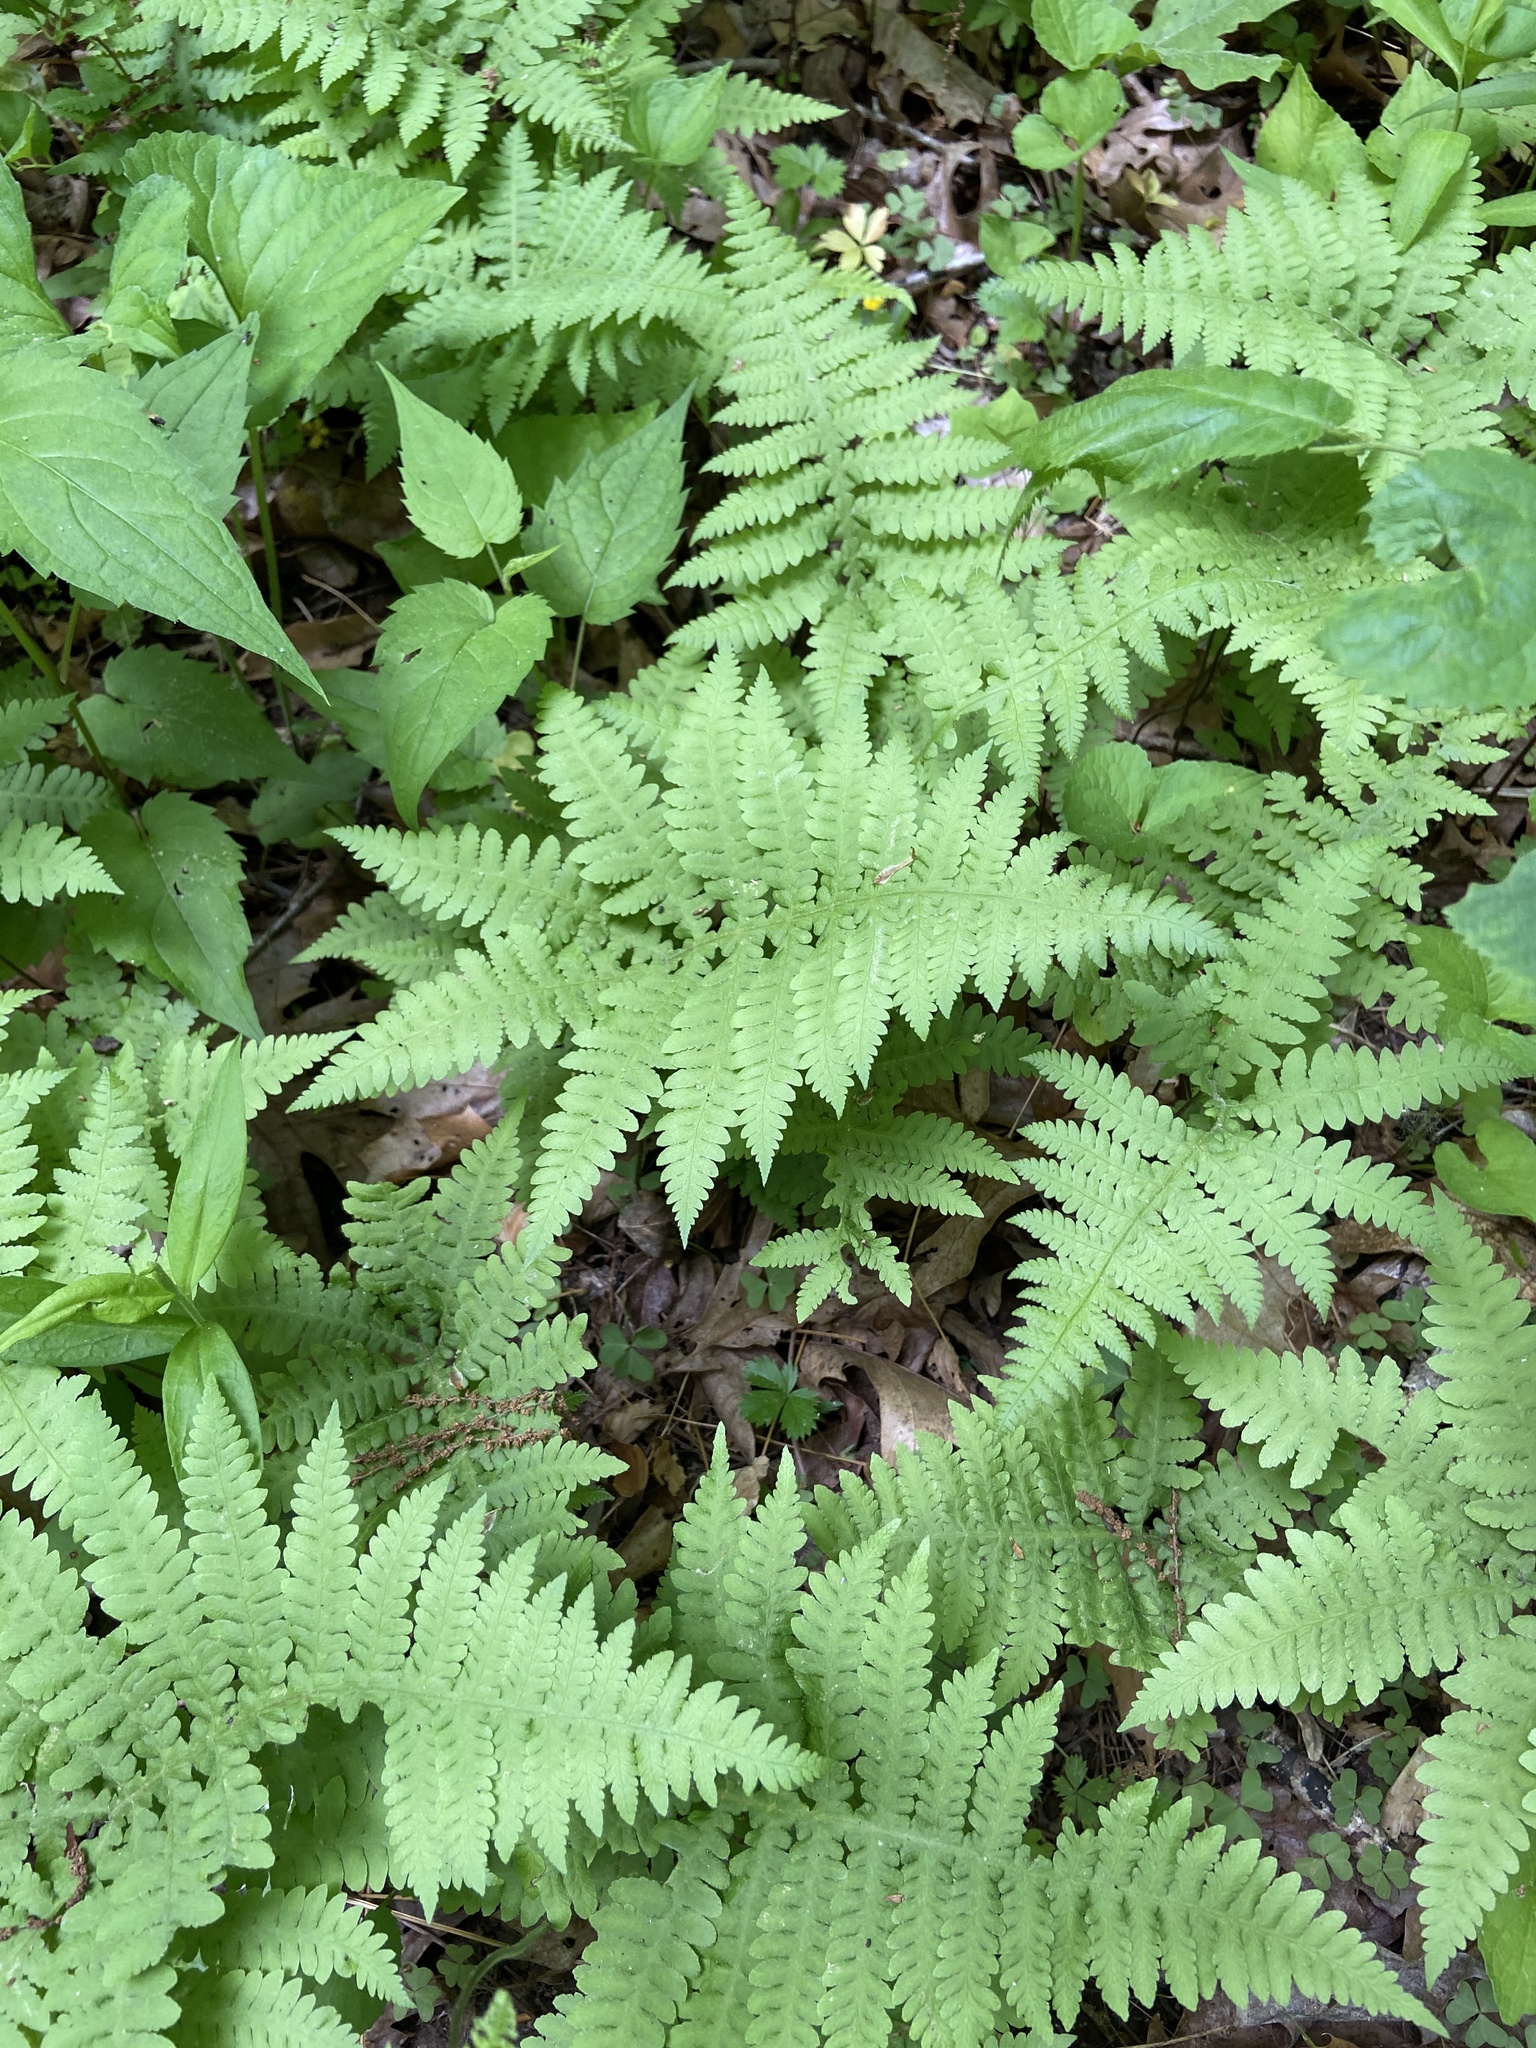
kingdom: Plantae
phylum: Tracheophyta
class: Polypodiopsida
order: Polypodiales
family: Thelypteridaceae
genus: Phegopteris
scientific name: Phegopteris hexagonoptera
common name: Broad beech fern
